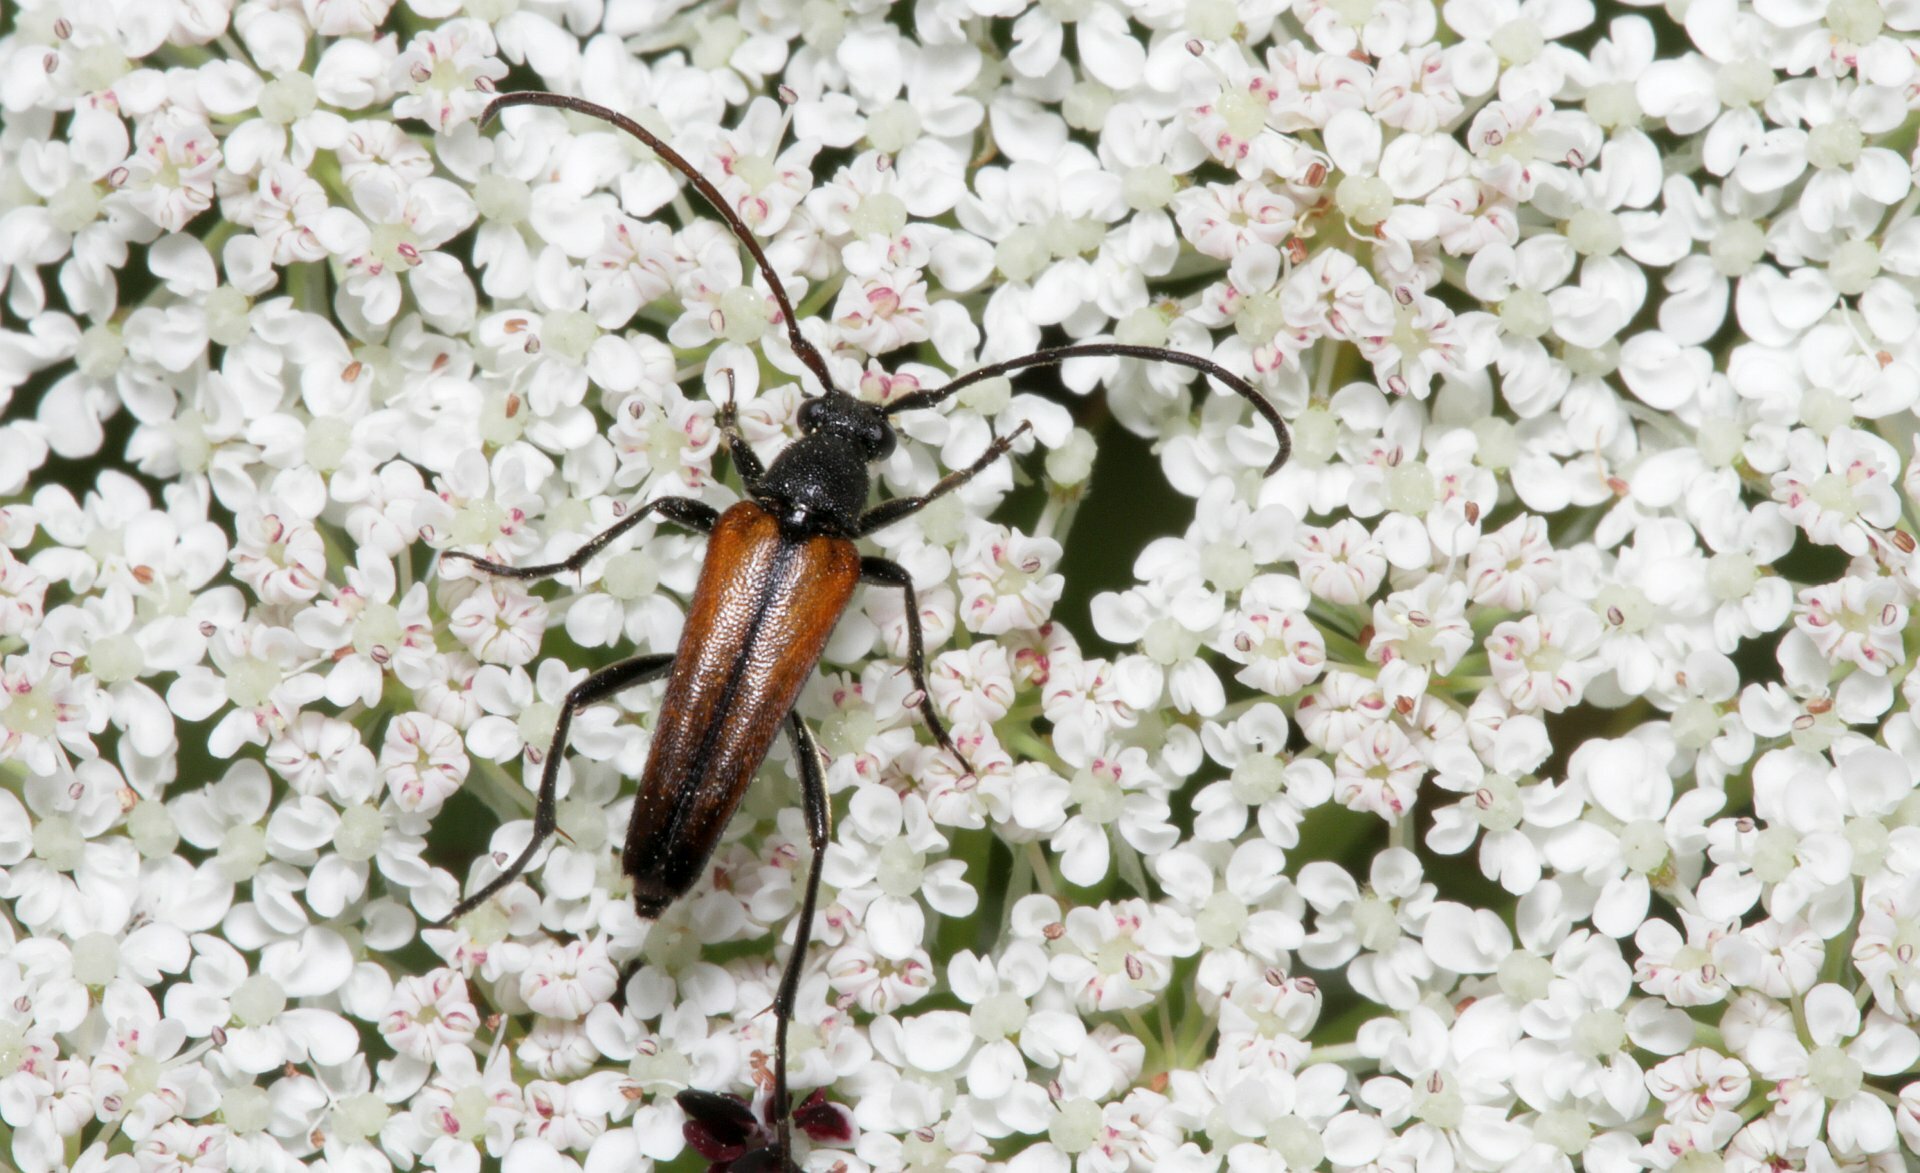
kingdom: Animalia
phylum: Arthropoda
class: Insecta
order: Coleoptera
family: Cerambycidae
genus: Stenurella
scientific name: Stenurella melanura
